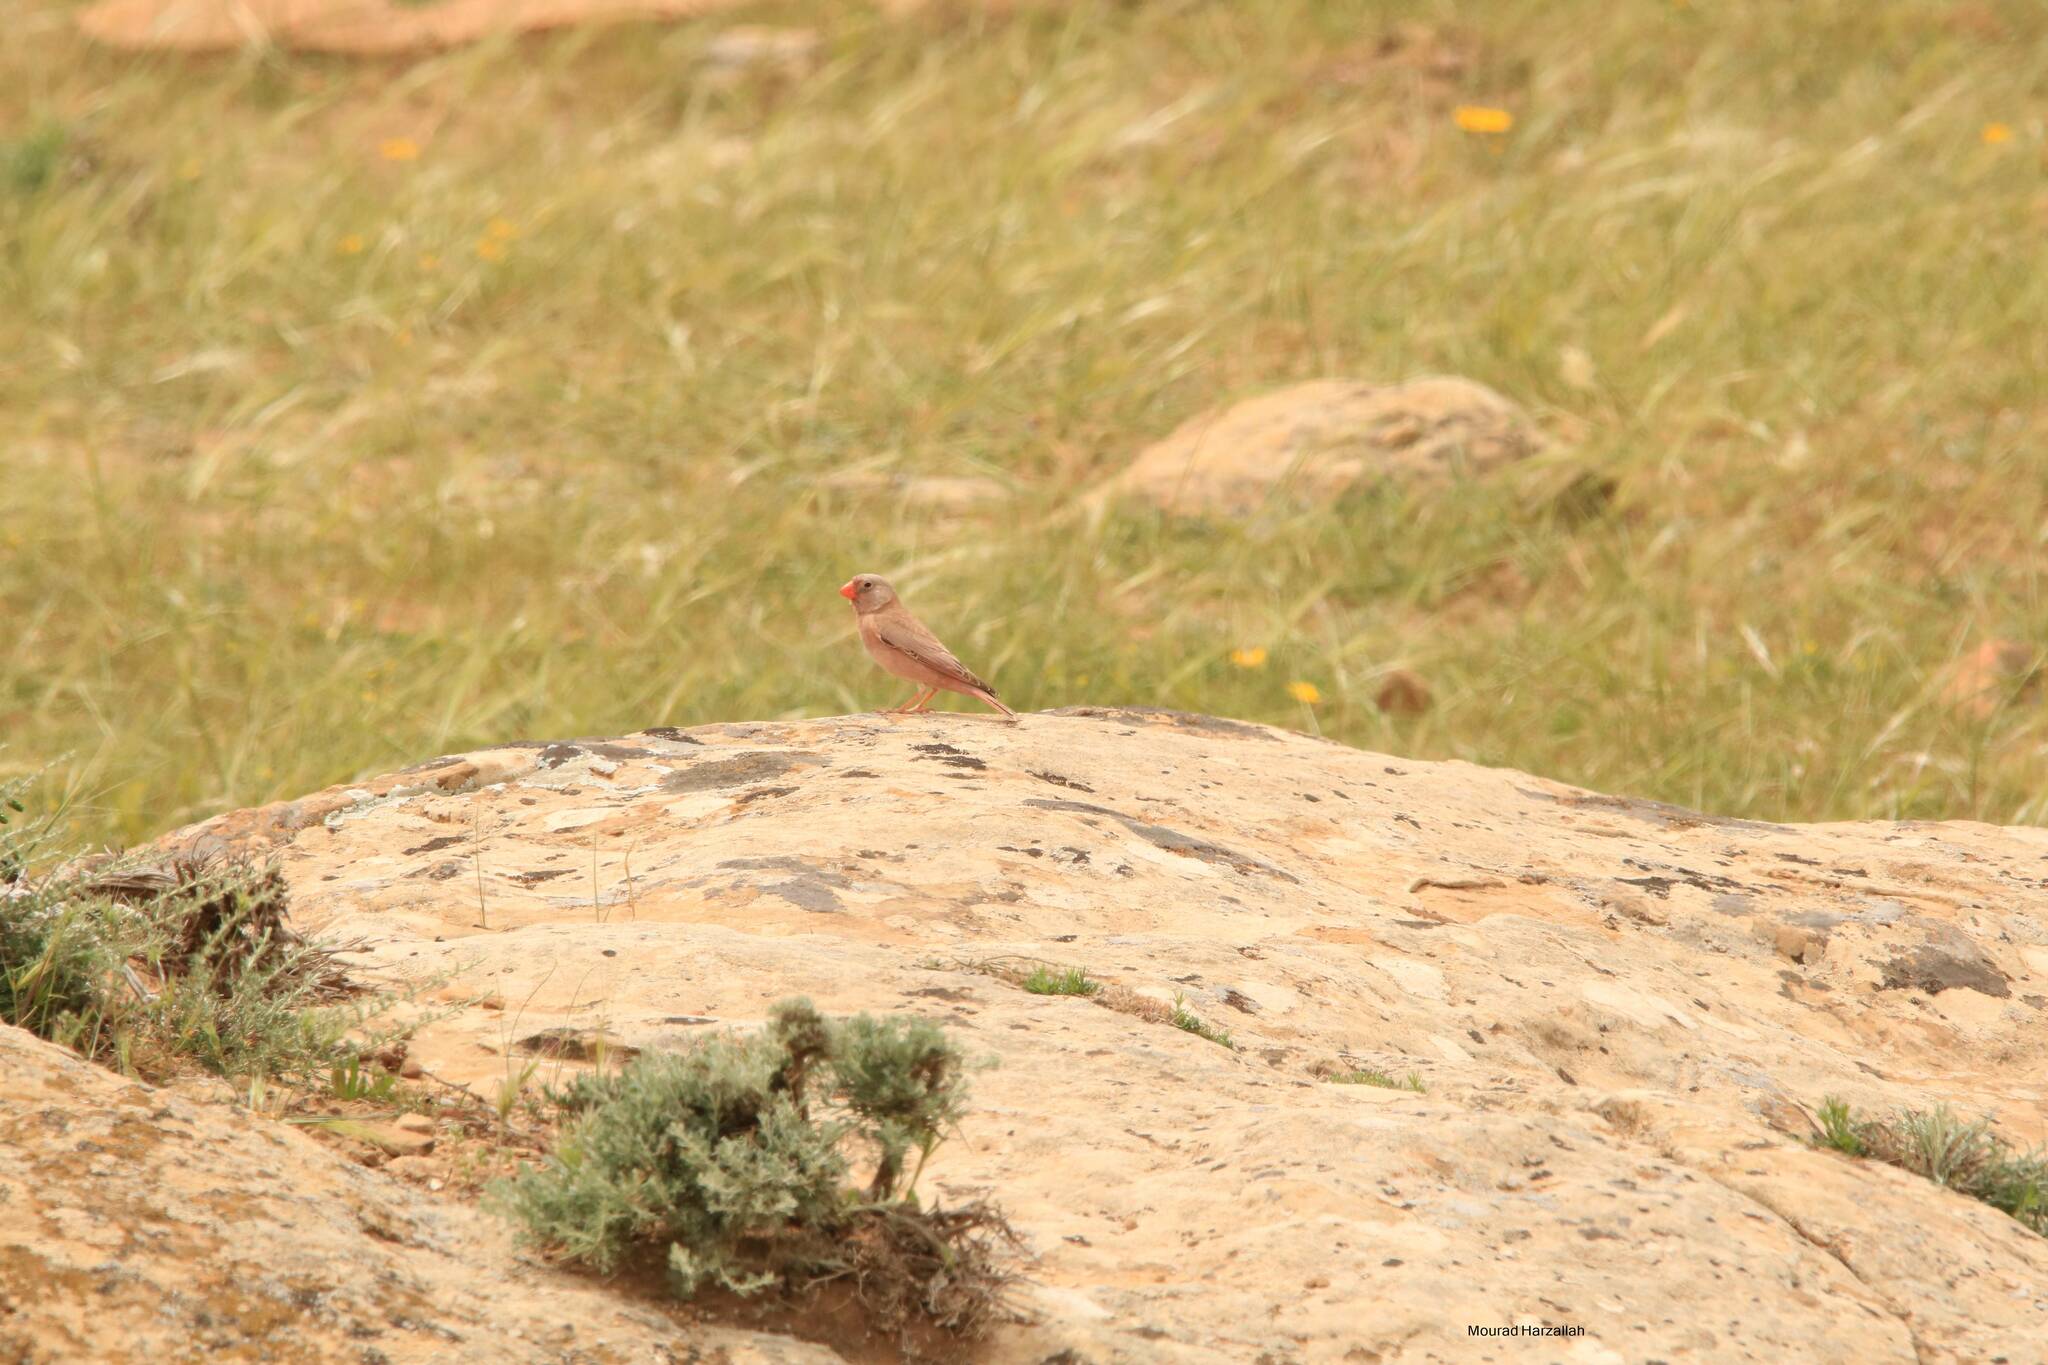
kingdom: Animalia
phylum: Chordata
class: Aves
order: Passeriformes
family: Fringillidae
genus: Bucanetes
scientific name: Bucanetes githagineus
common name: Trumpeter finch
